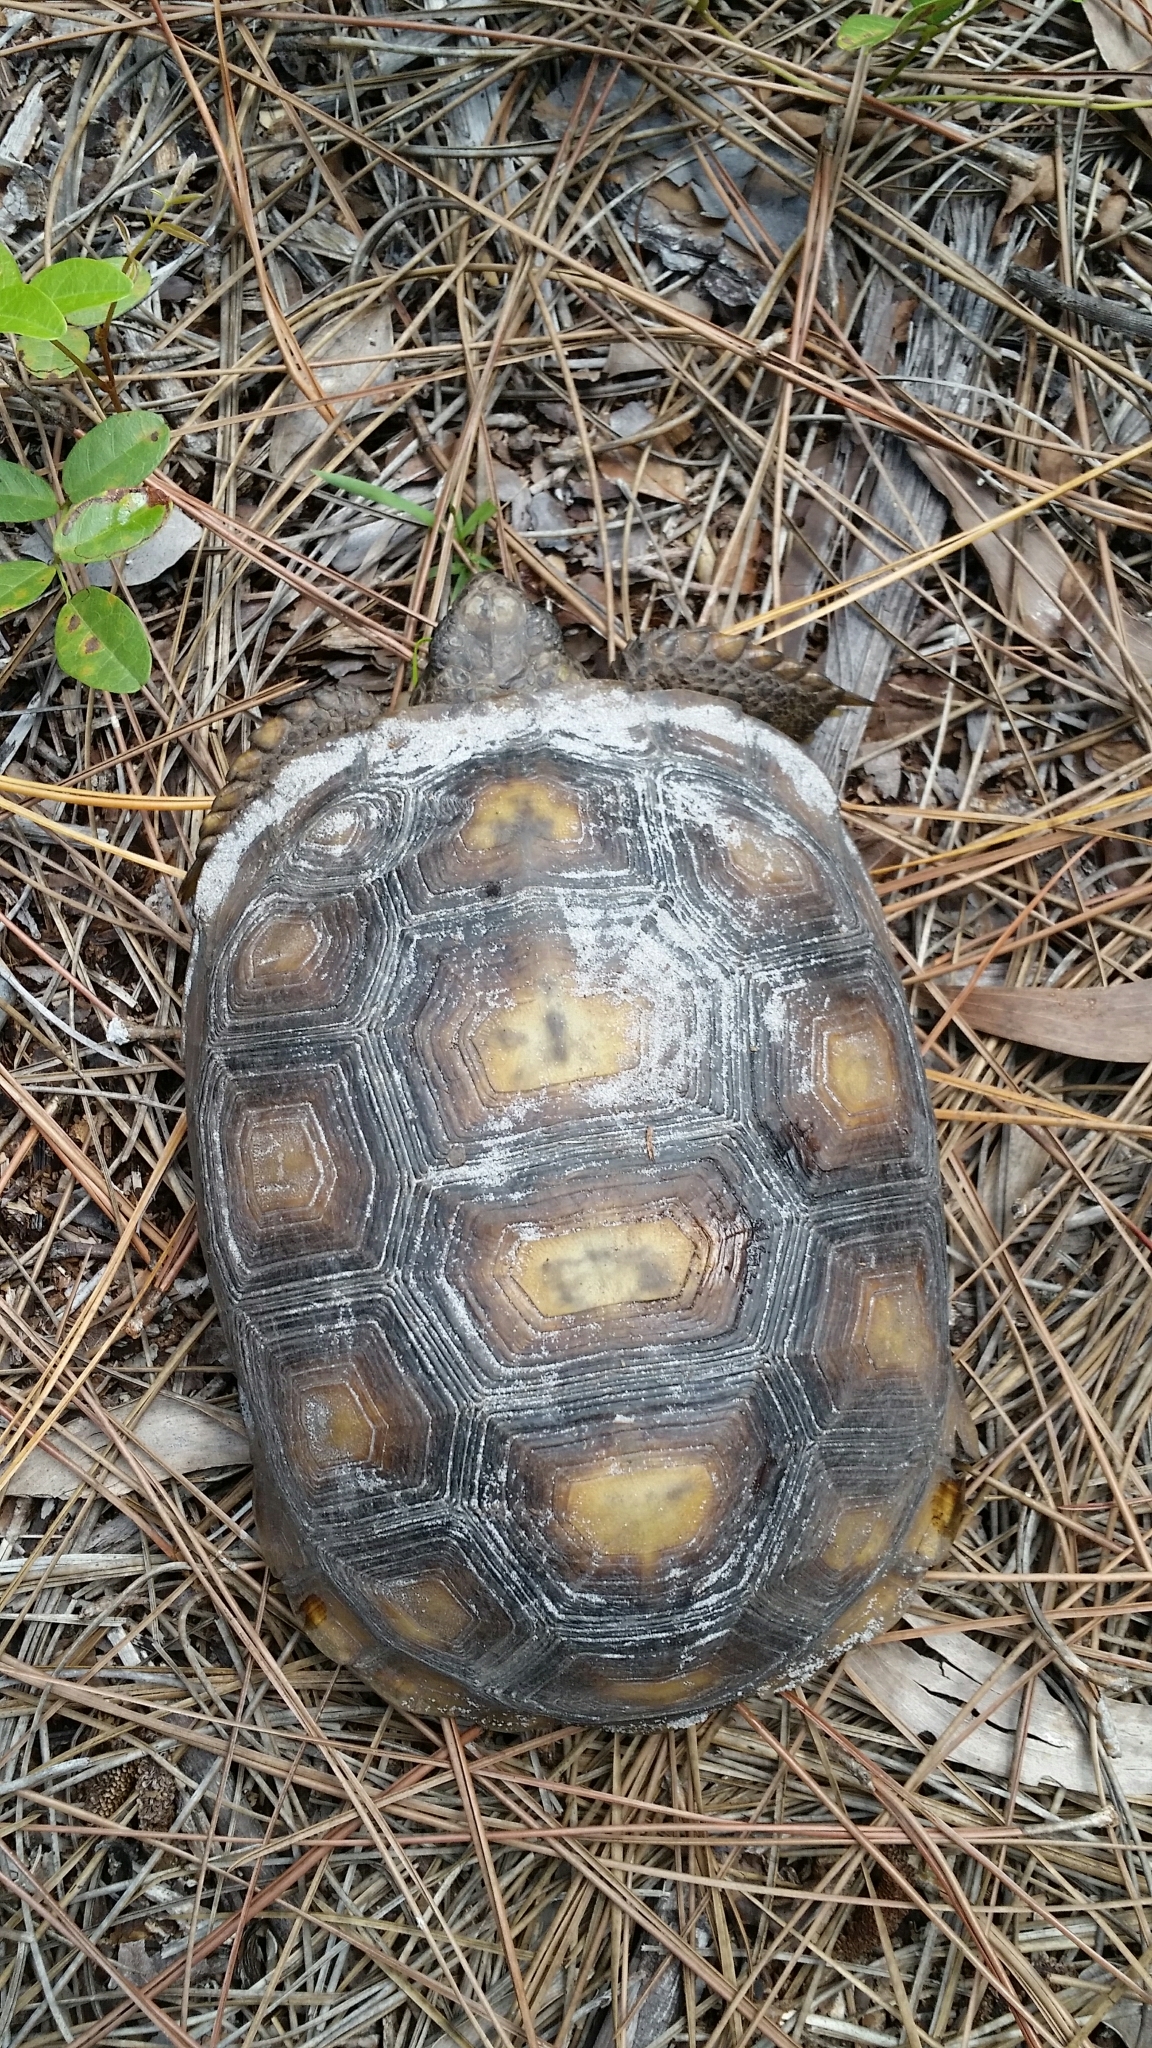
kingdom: Animalia
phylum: Chordata
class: Testudines
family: Testudinidae
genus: Gopherus
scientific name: Gopherus polyphemus
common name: Florida gopher tortoise
